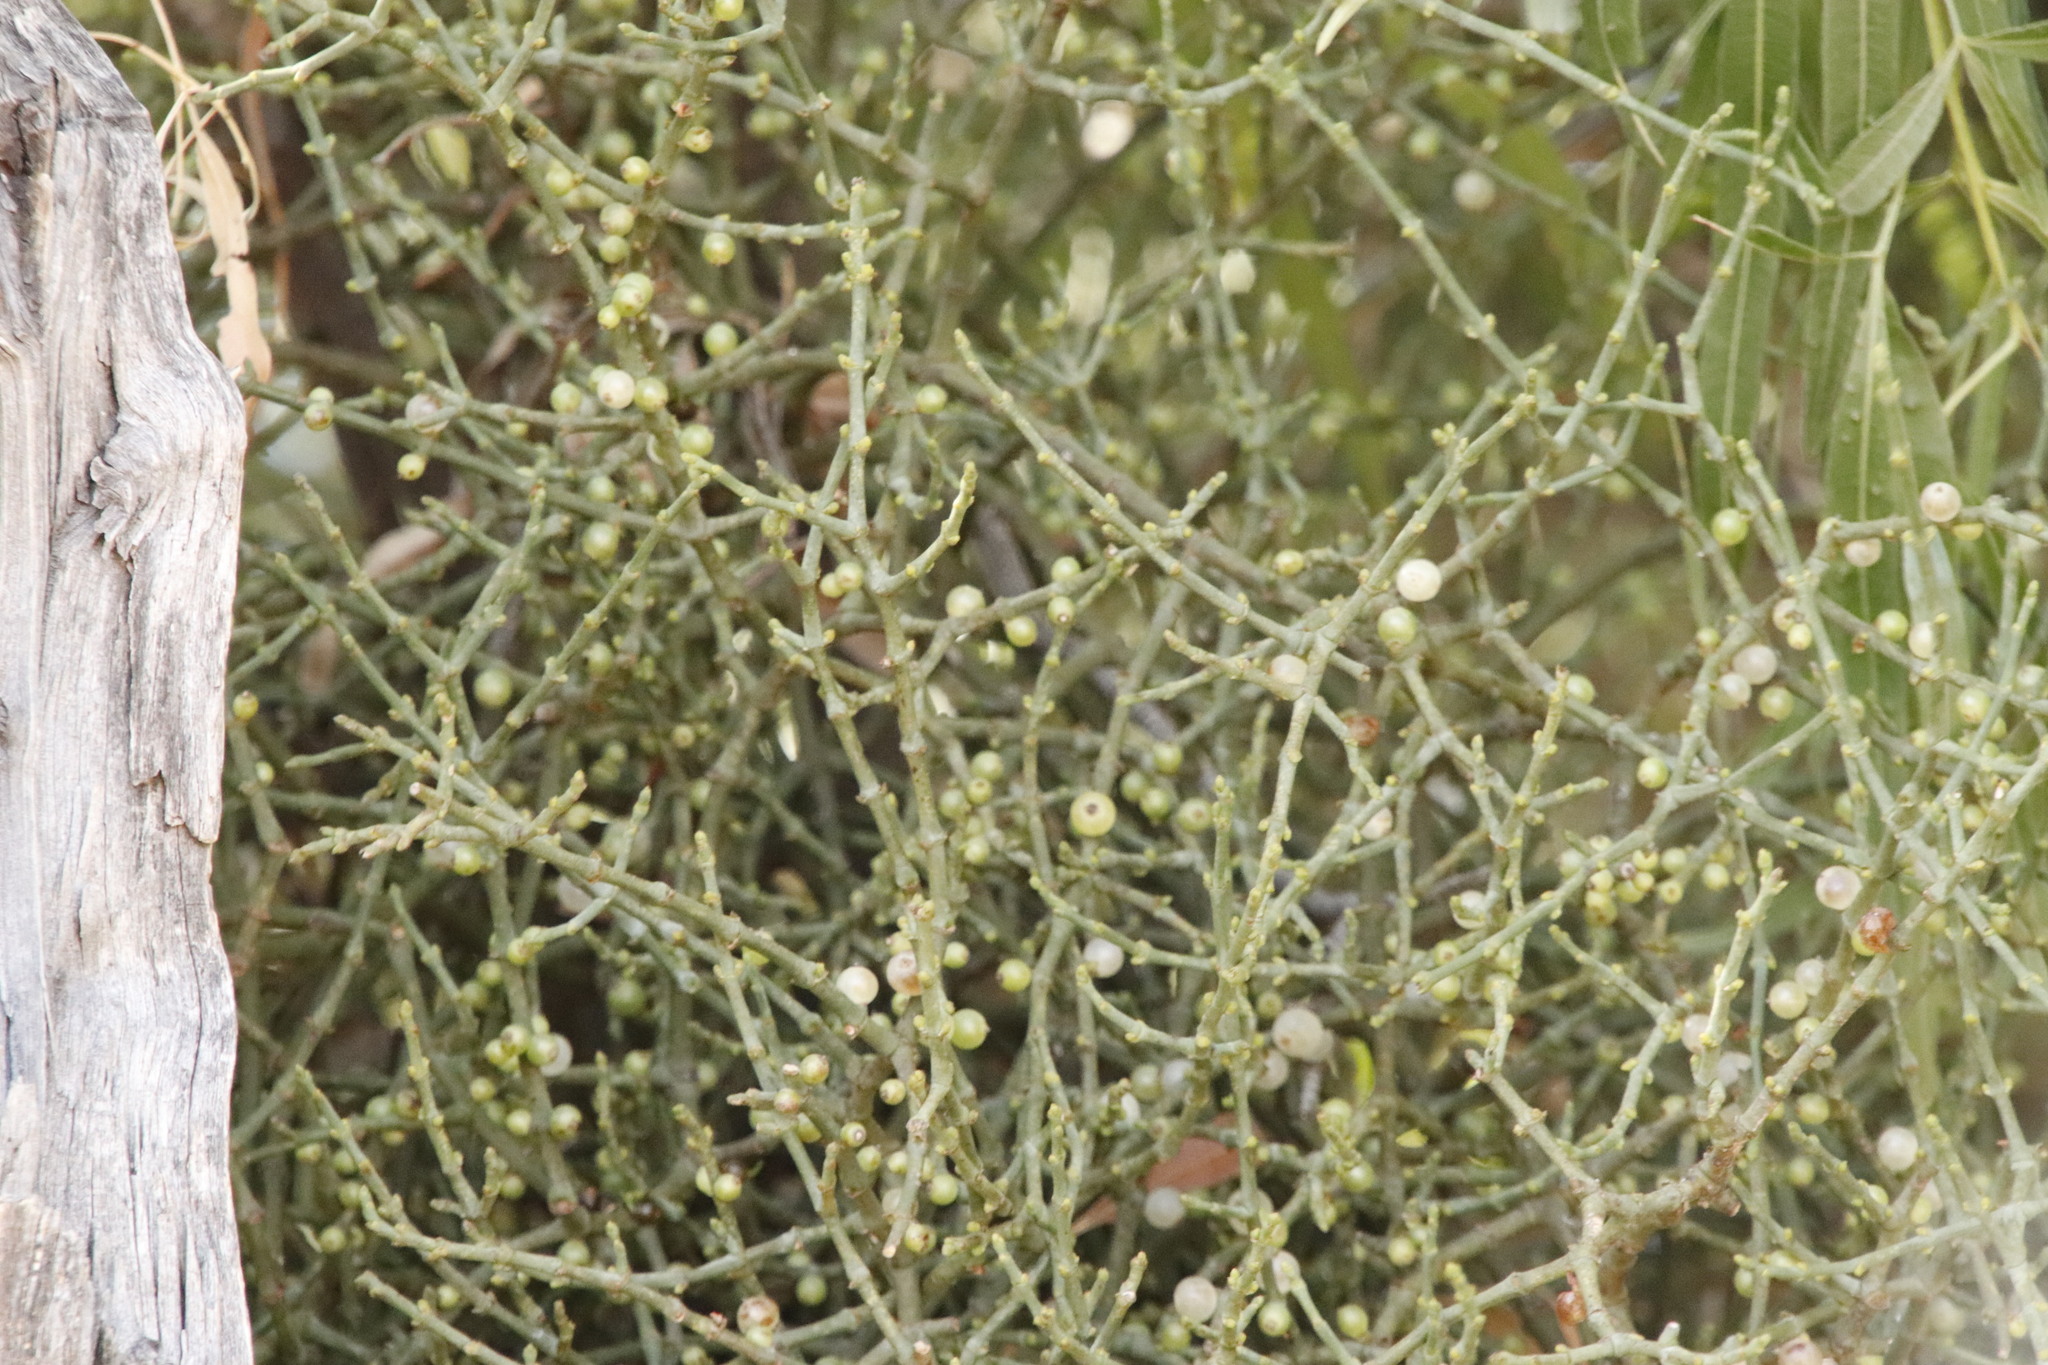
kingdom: Plantae
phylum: Tracheophyta
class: Magnoliopsida
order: Santalales
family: Viscaceae
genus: Viscum
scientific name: Viscum capense
